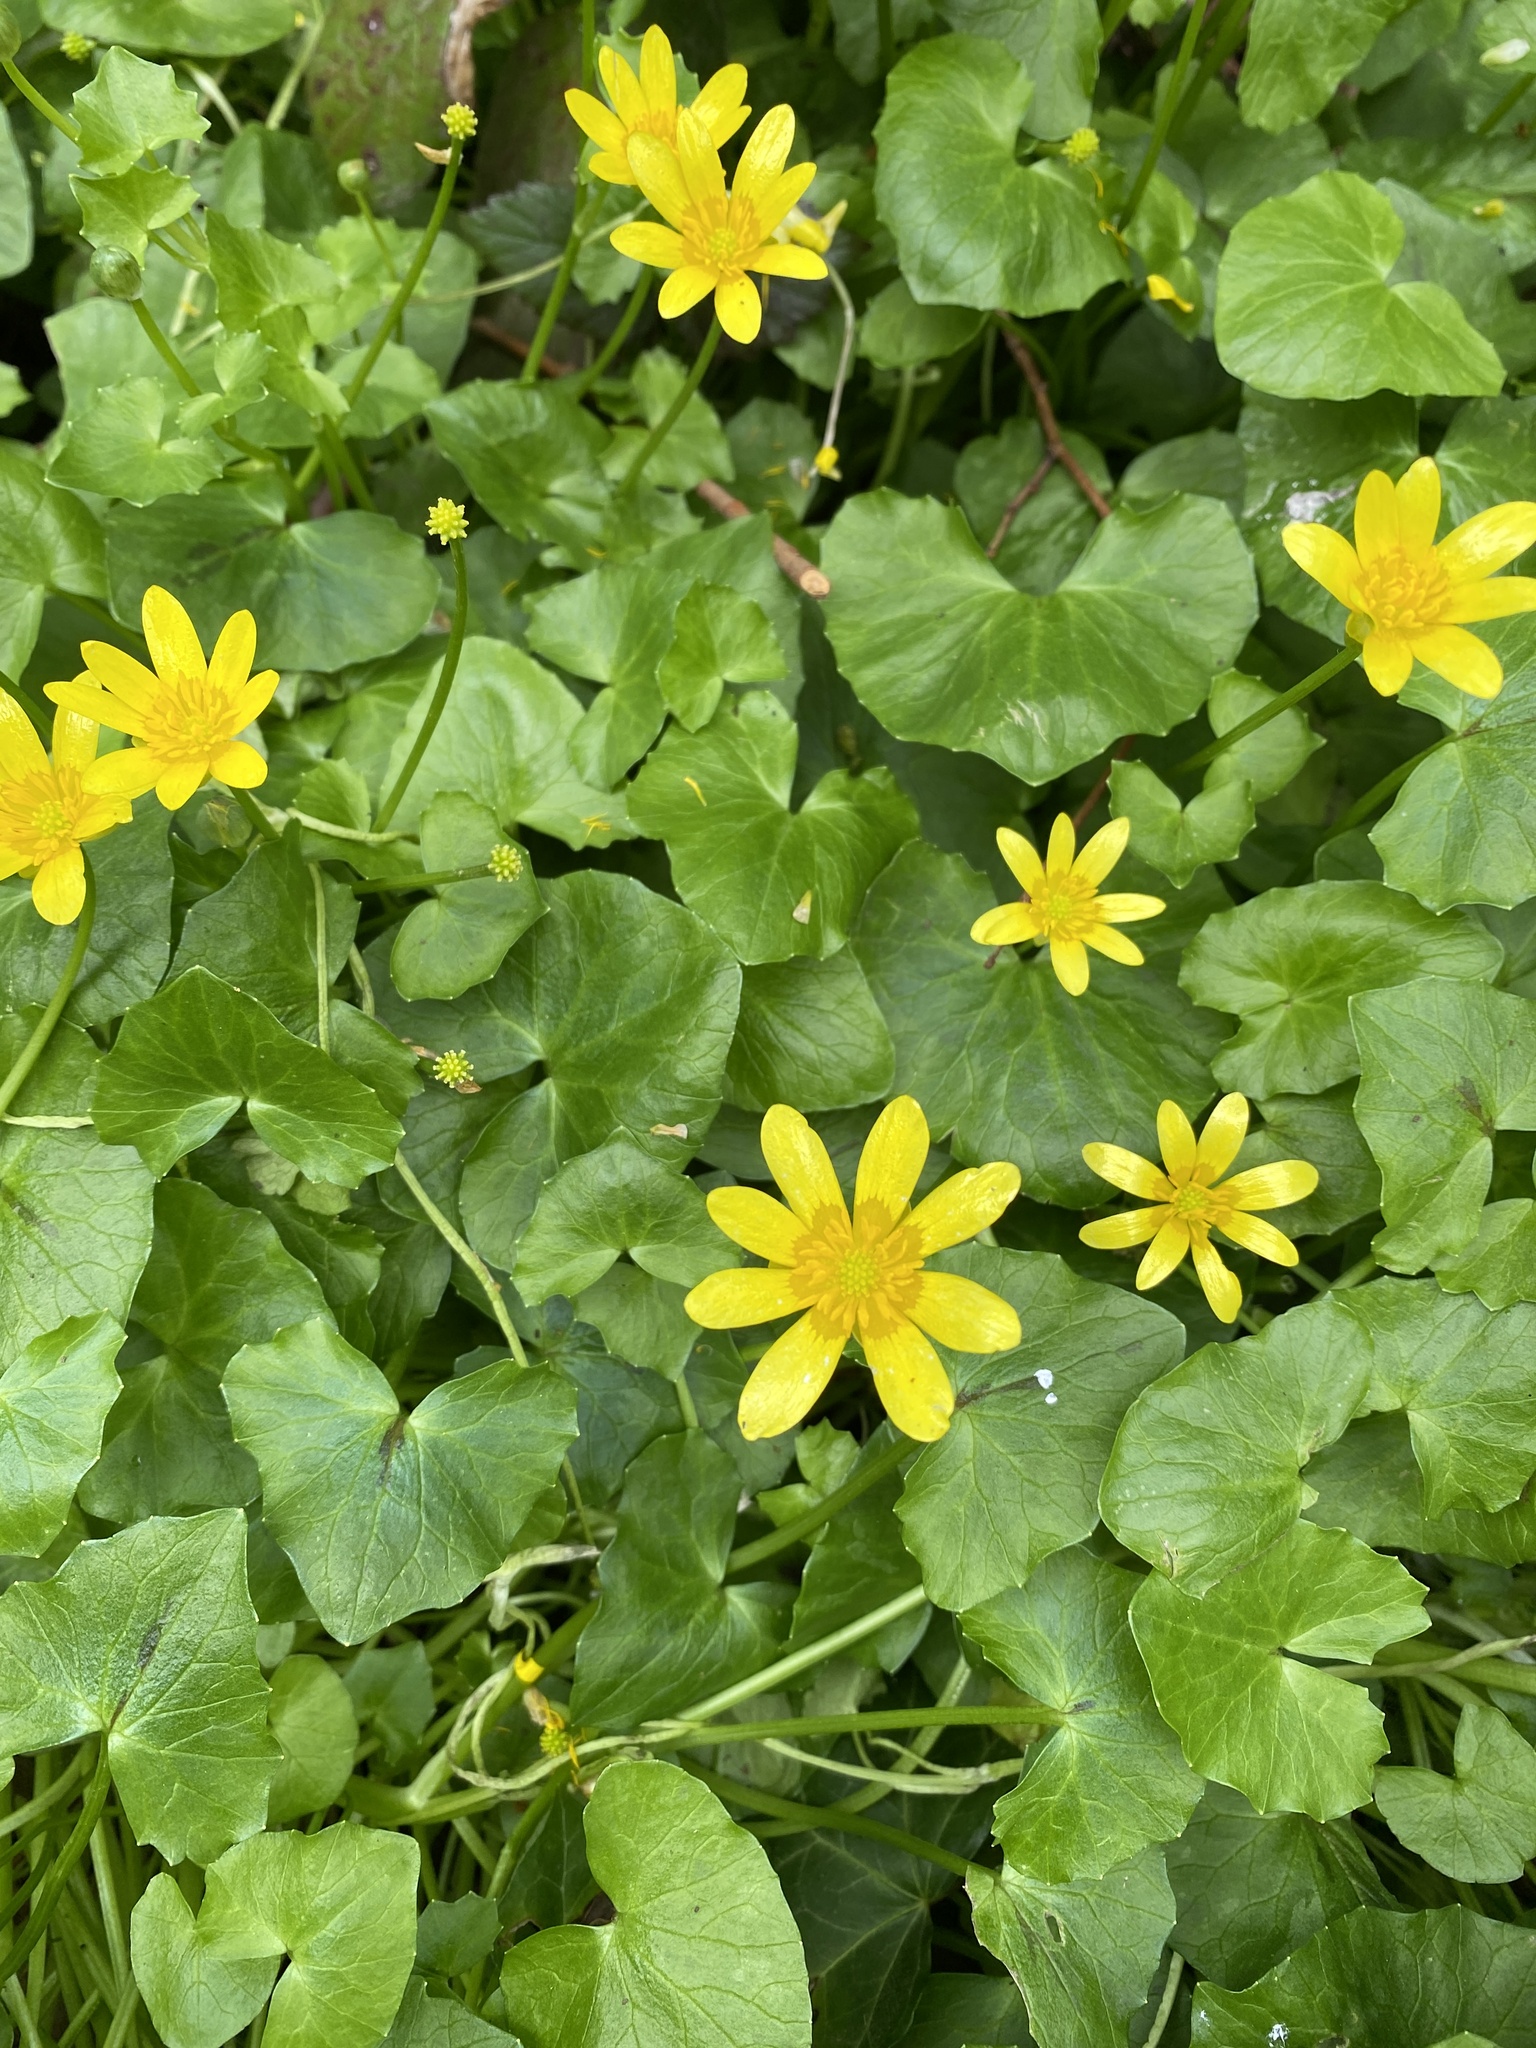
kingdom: Plantae
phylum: Tracheophyta
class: Magnoliopsida
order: Ranunculales
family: Ranunculaceae
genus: Ficaria
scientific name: Ficaria verna
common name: Lesser celandine
